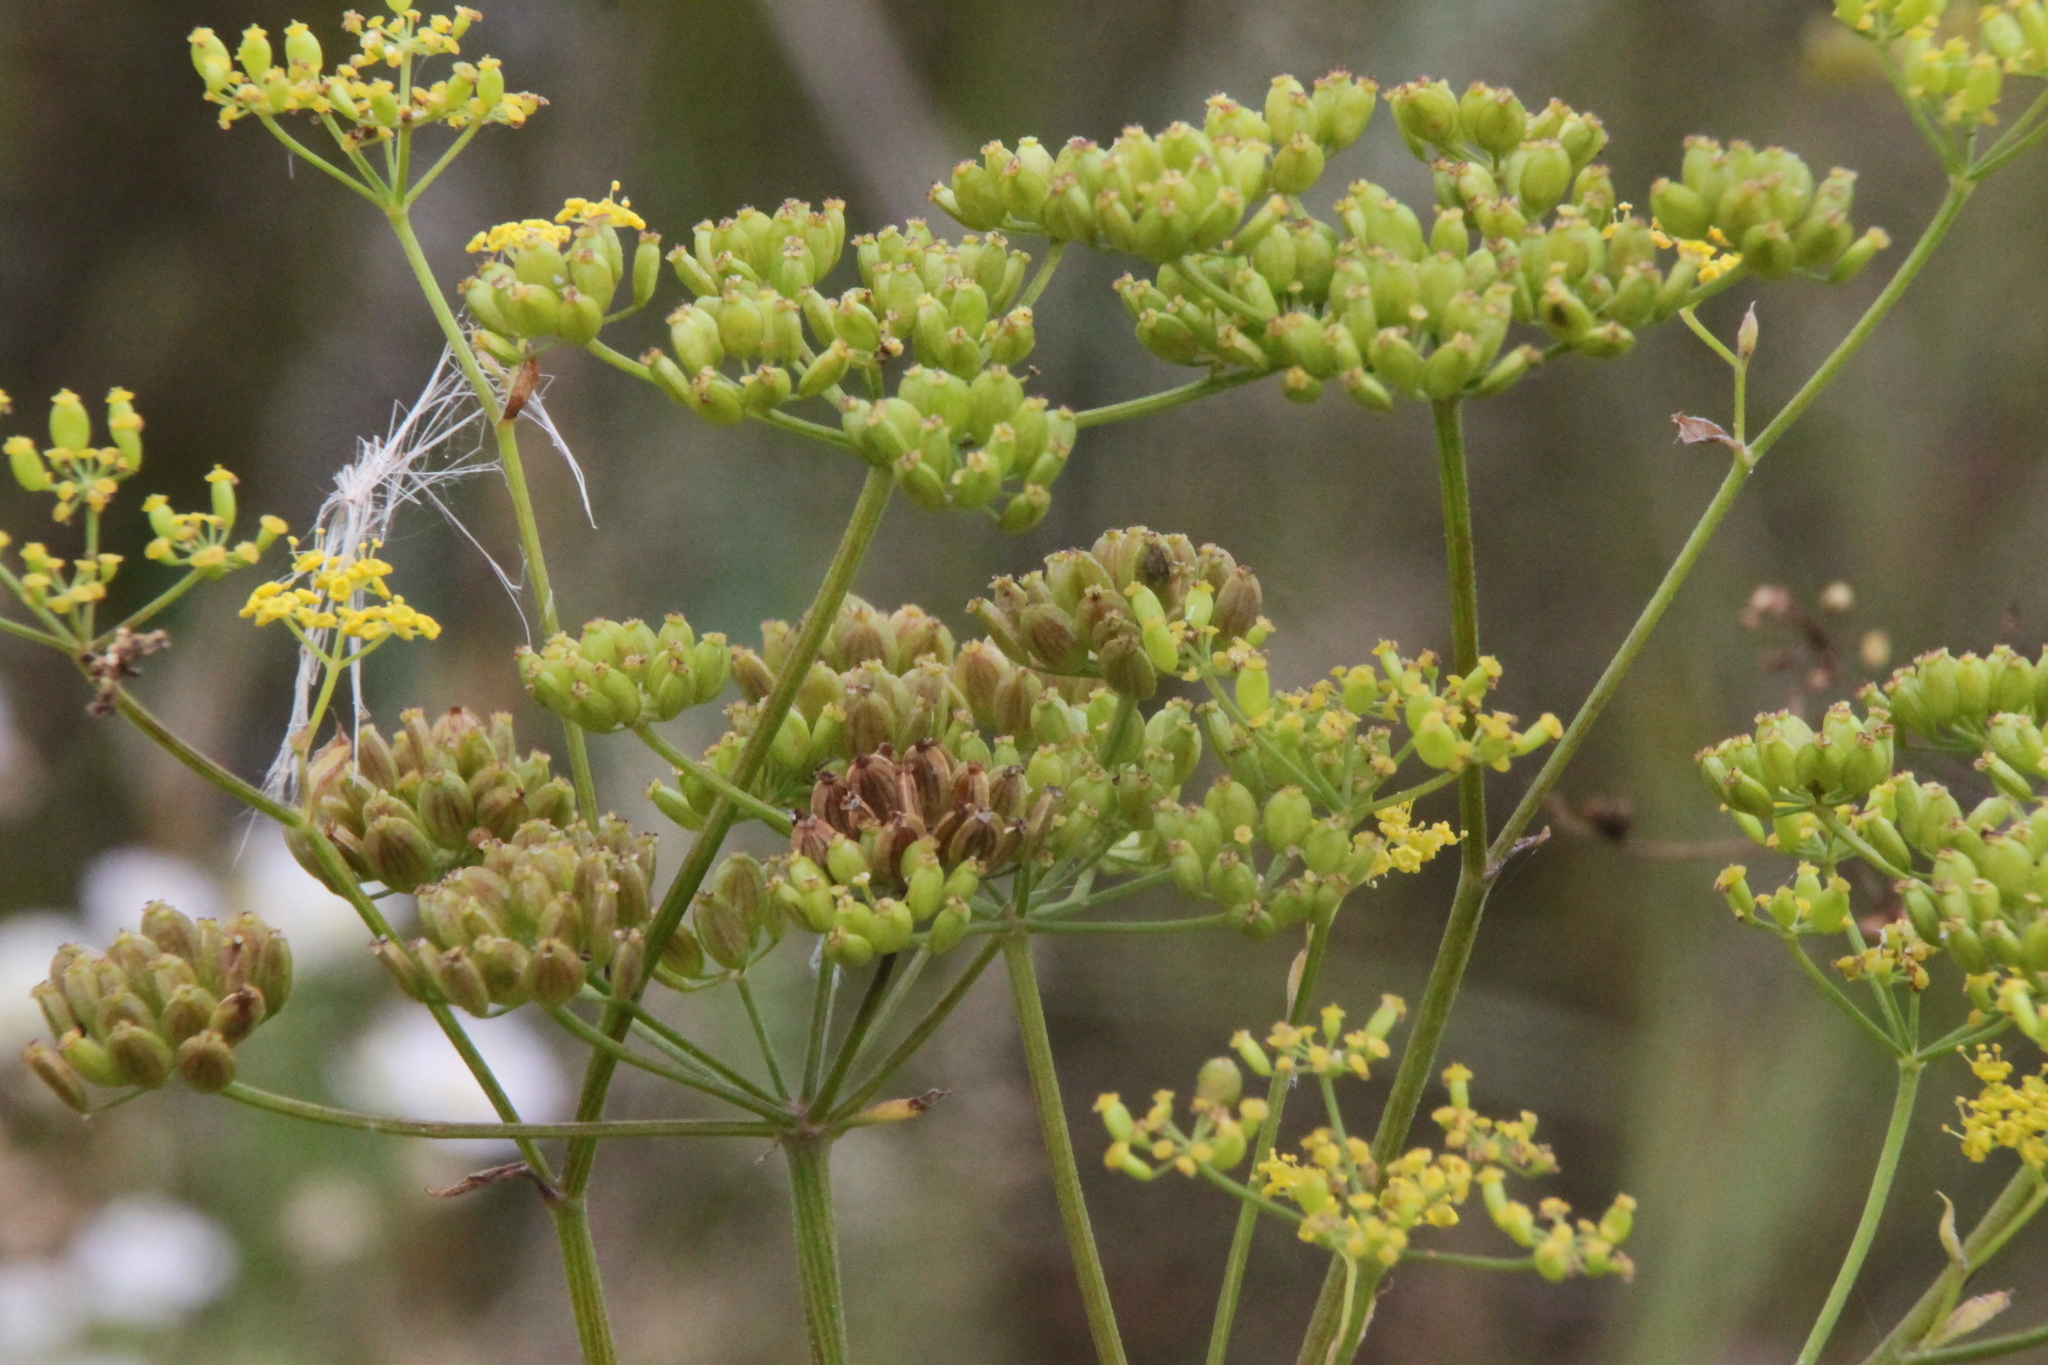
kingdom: Plantae
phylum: Tracheophyta
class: Magnoliopsida
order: Apiales
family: Apiaceae
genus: Pastinaca
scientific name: Pastinaca sativa
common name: Wild parsnip
